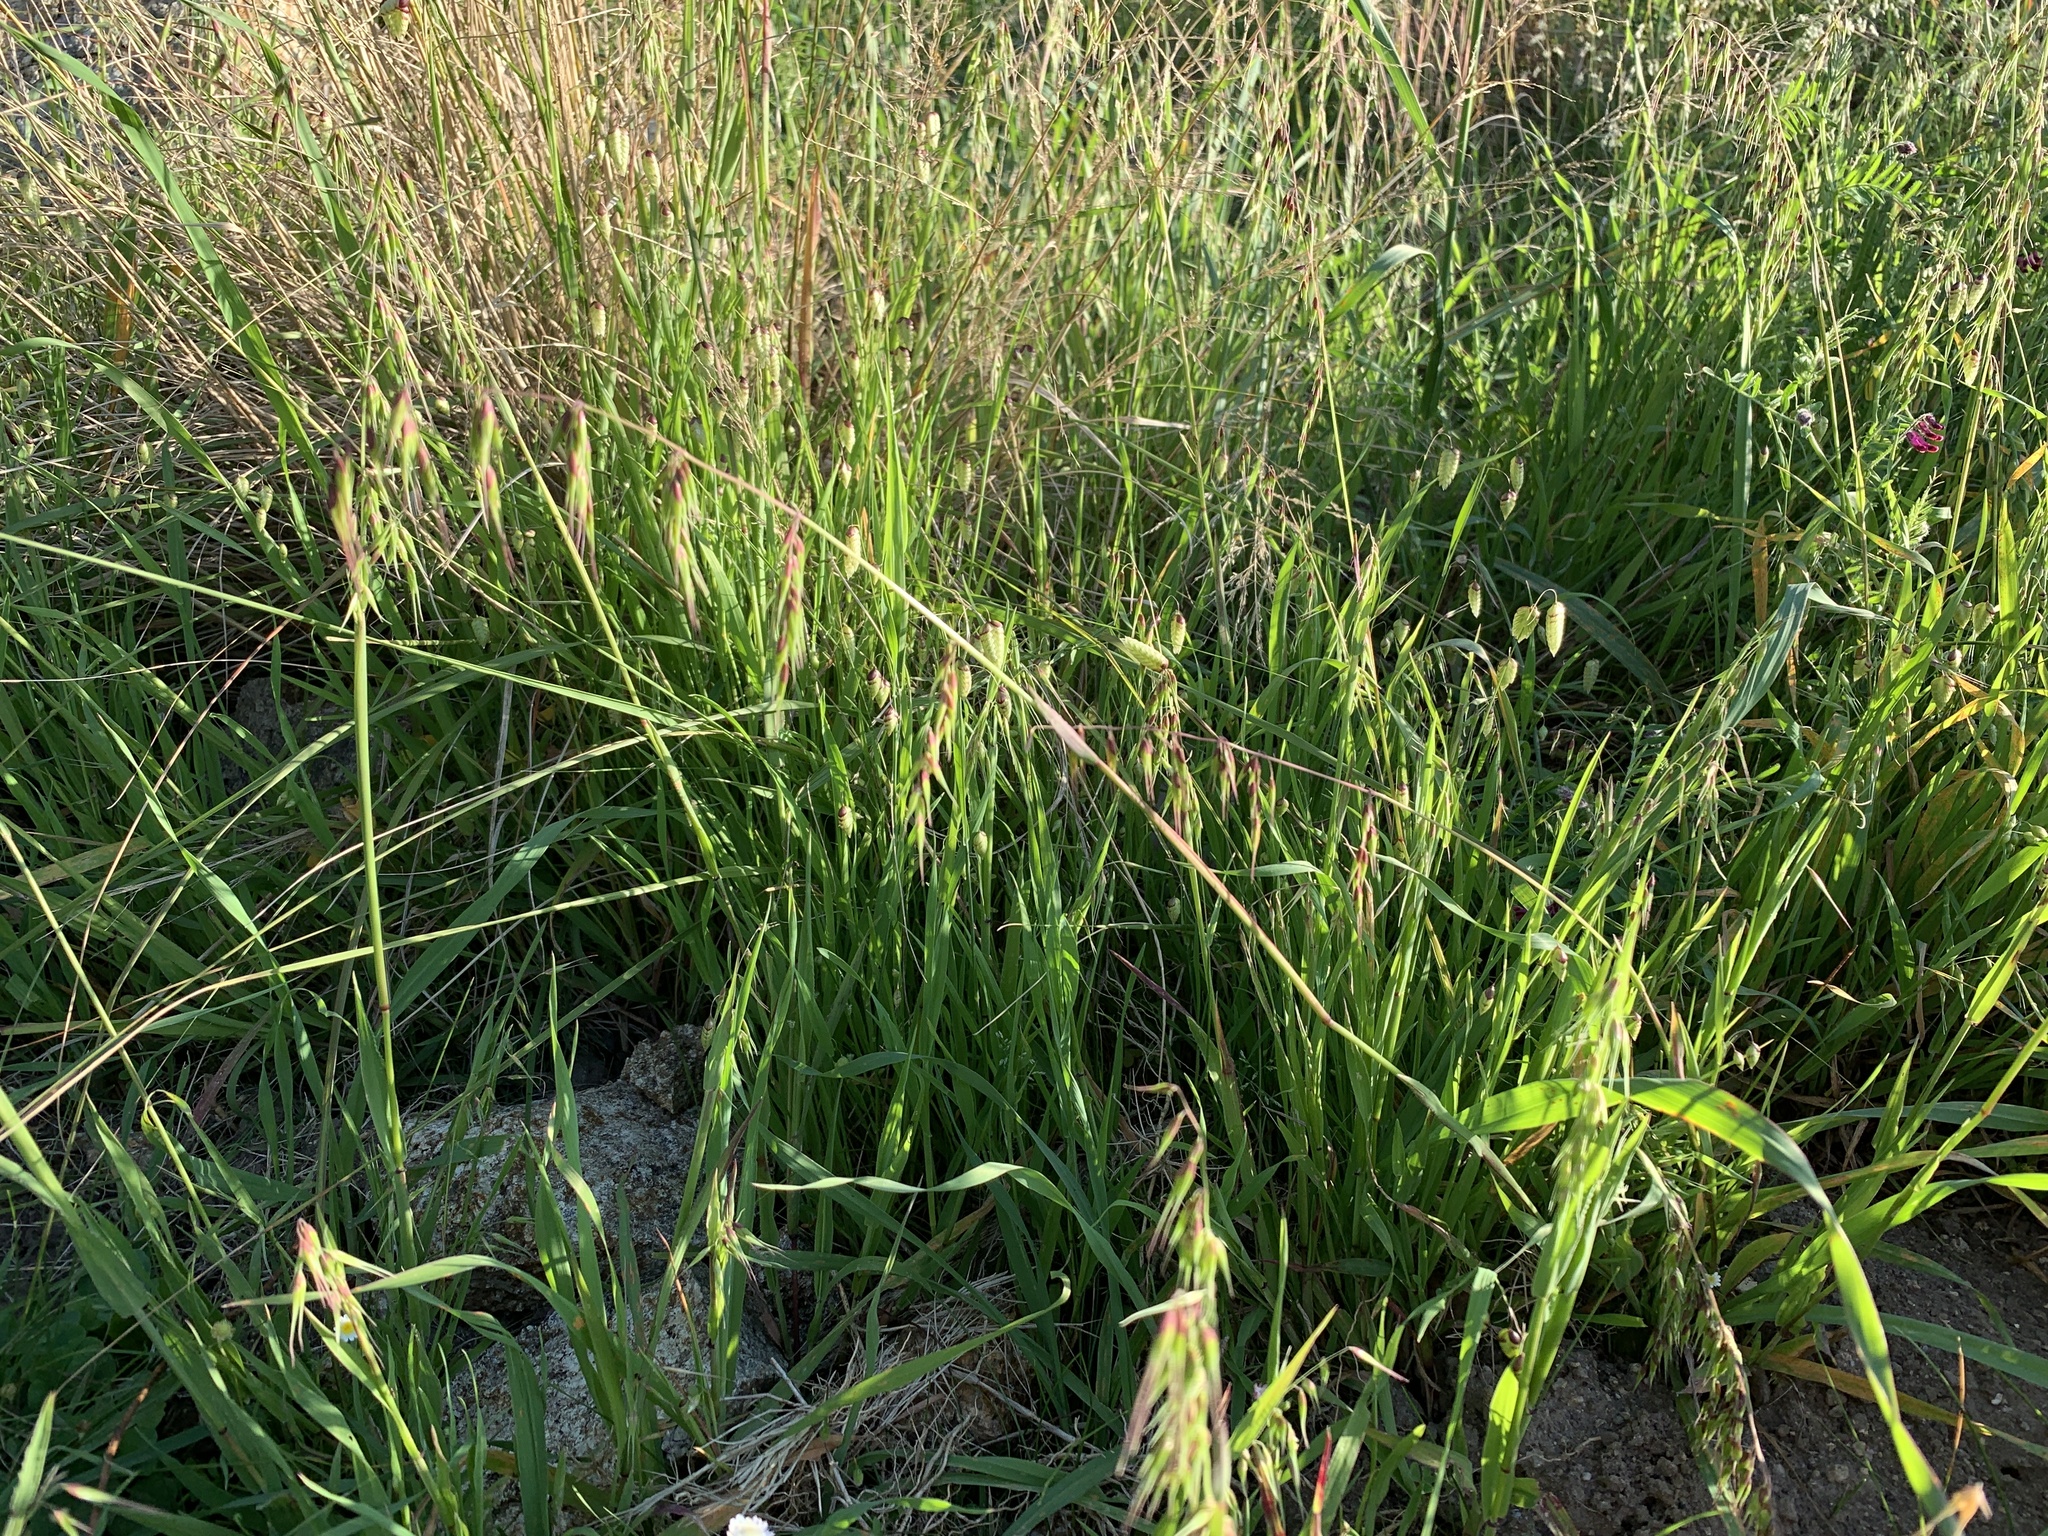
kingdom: Plantae
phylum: Tracheophyta
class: Liliopsida
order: Poales
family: Poaceae
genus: Ehrharta
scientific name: Ehrharta longiflora
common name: Longflowered veldtgrass
